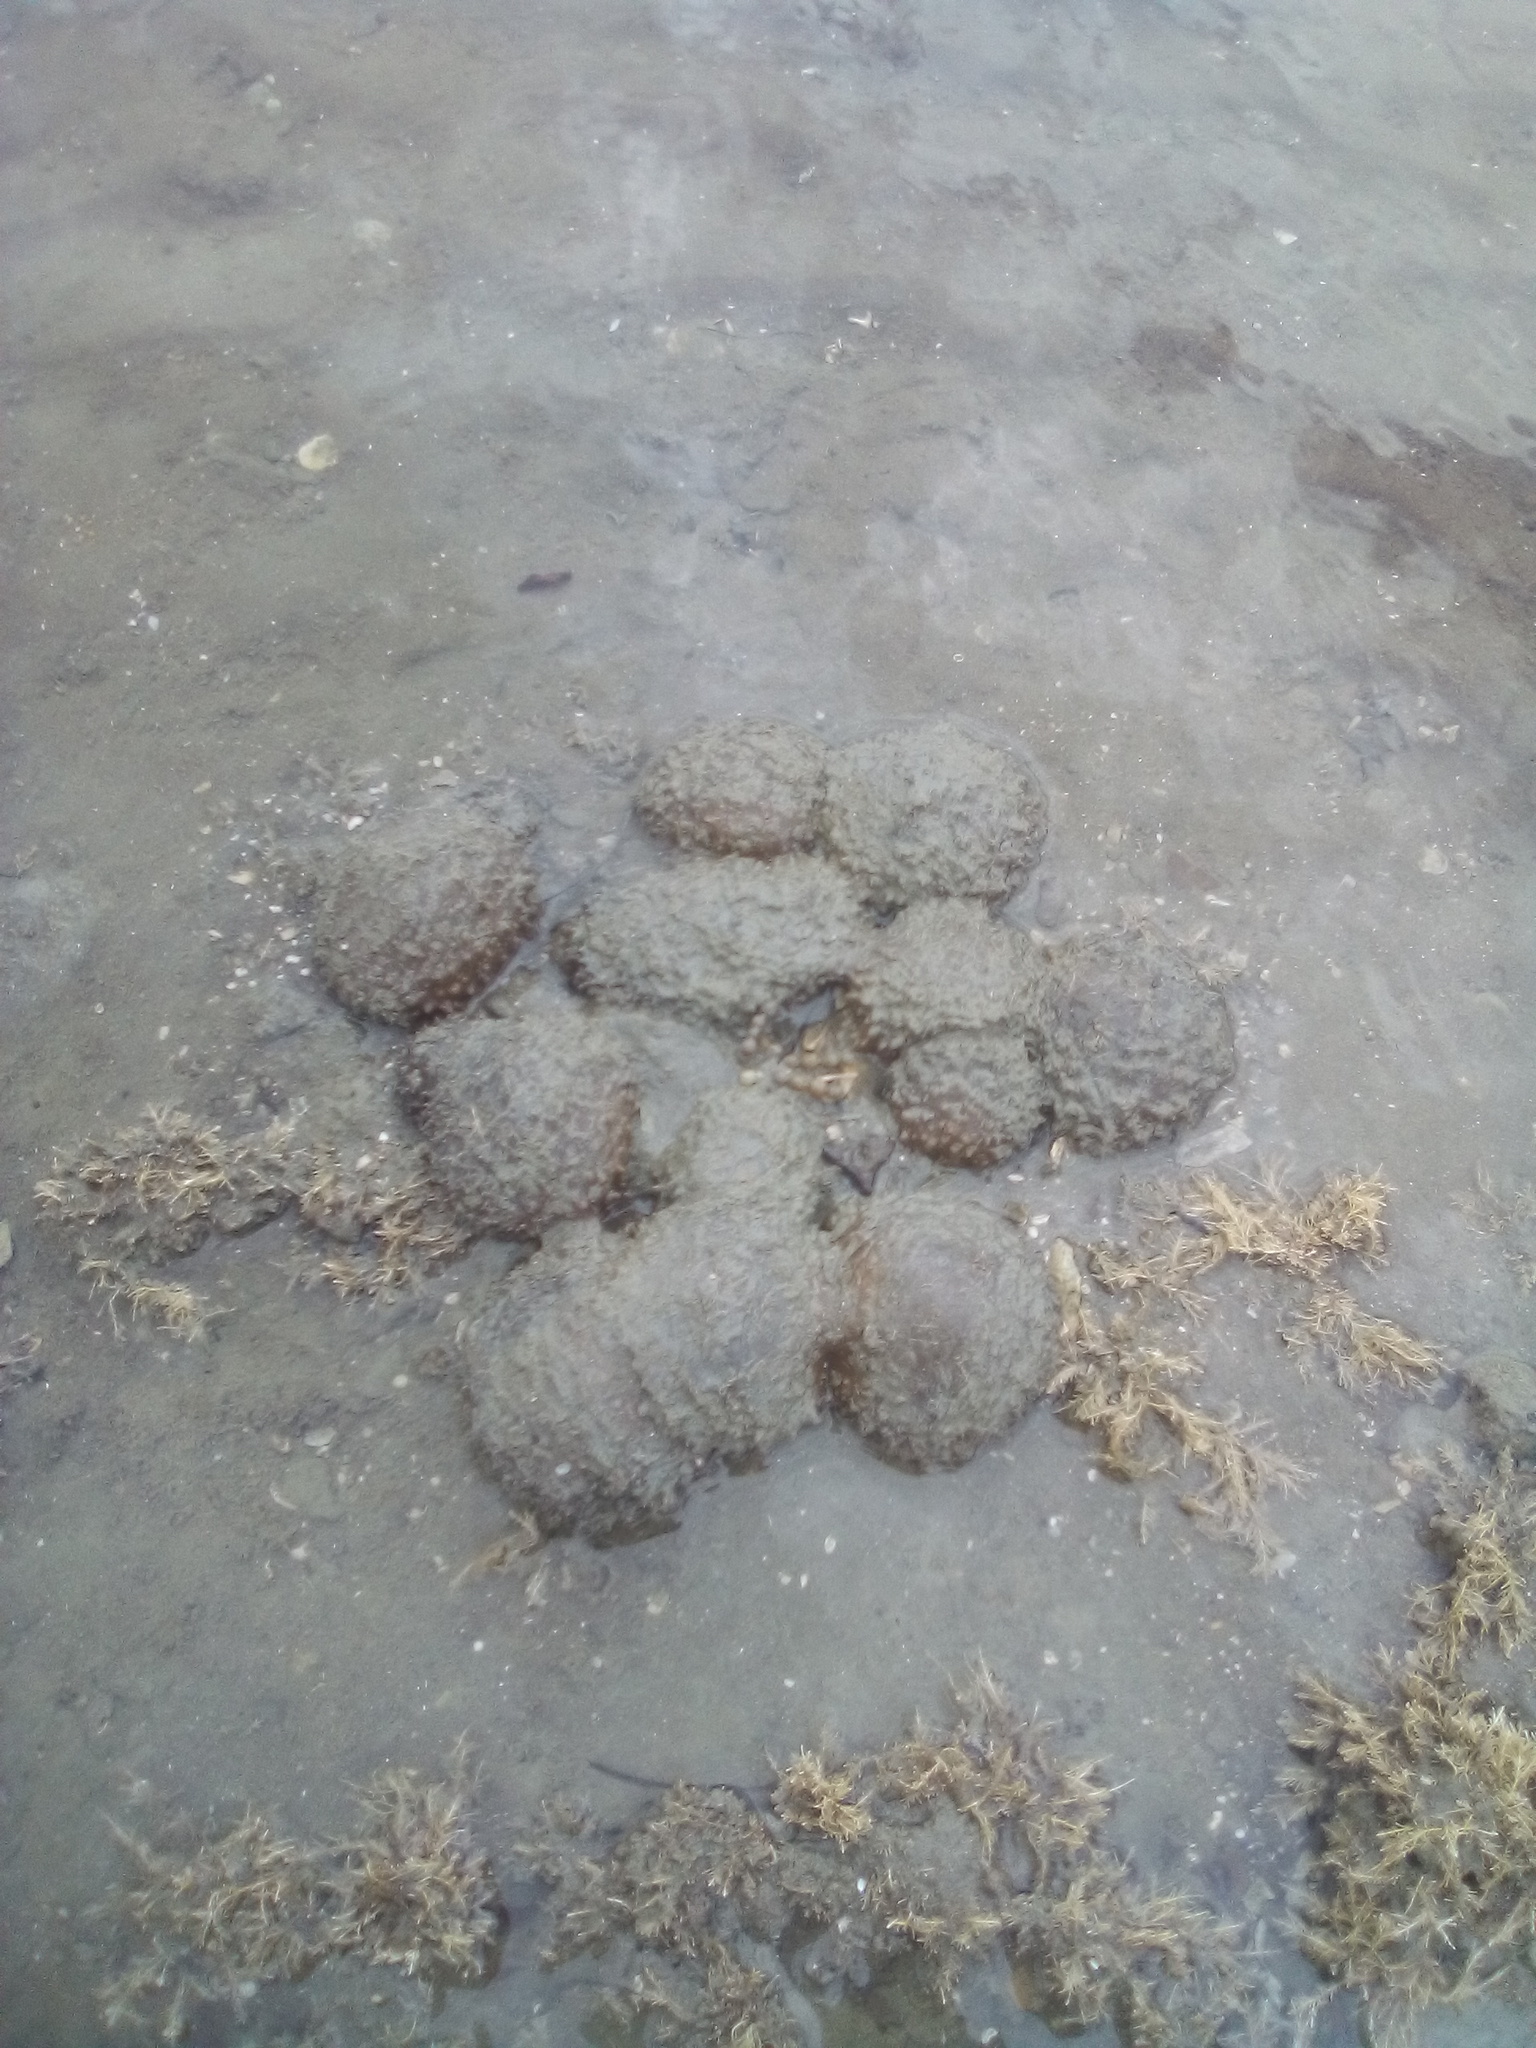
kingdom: Animalia
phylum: Porifera
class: Demospongiae
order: Suberitida
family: Suberitidae
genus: Aaptos
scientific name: Aaptos tenta
